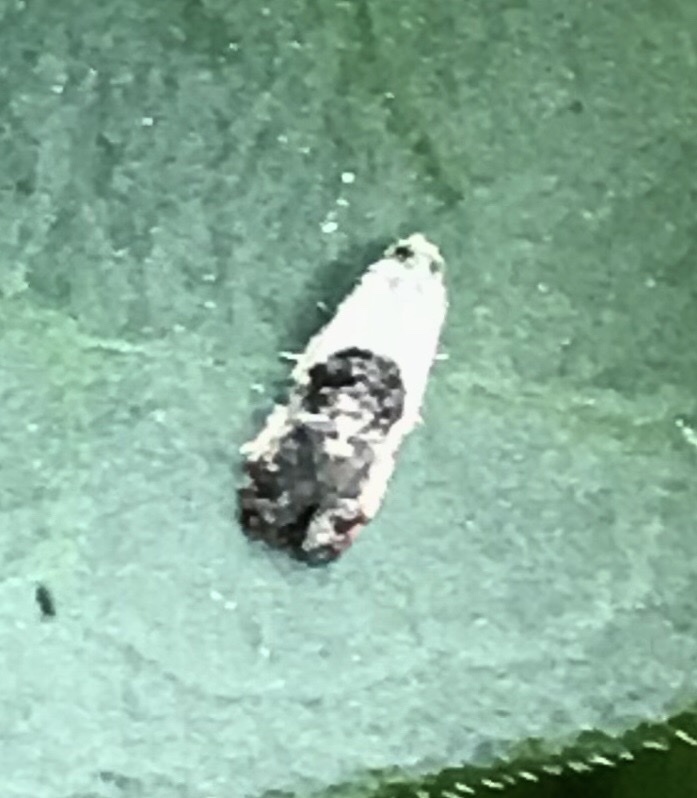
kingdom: Animalia
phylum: Arthropoda
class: Insecta
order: Lepidoptera
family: Noctuidae
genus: Acontia
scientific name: Acontia erastrioides
